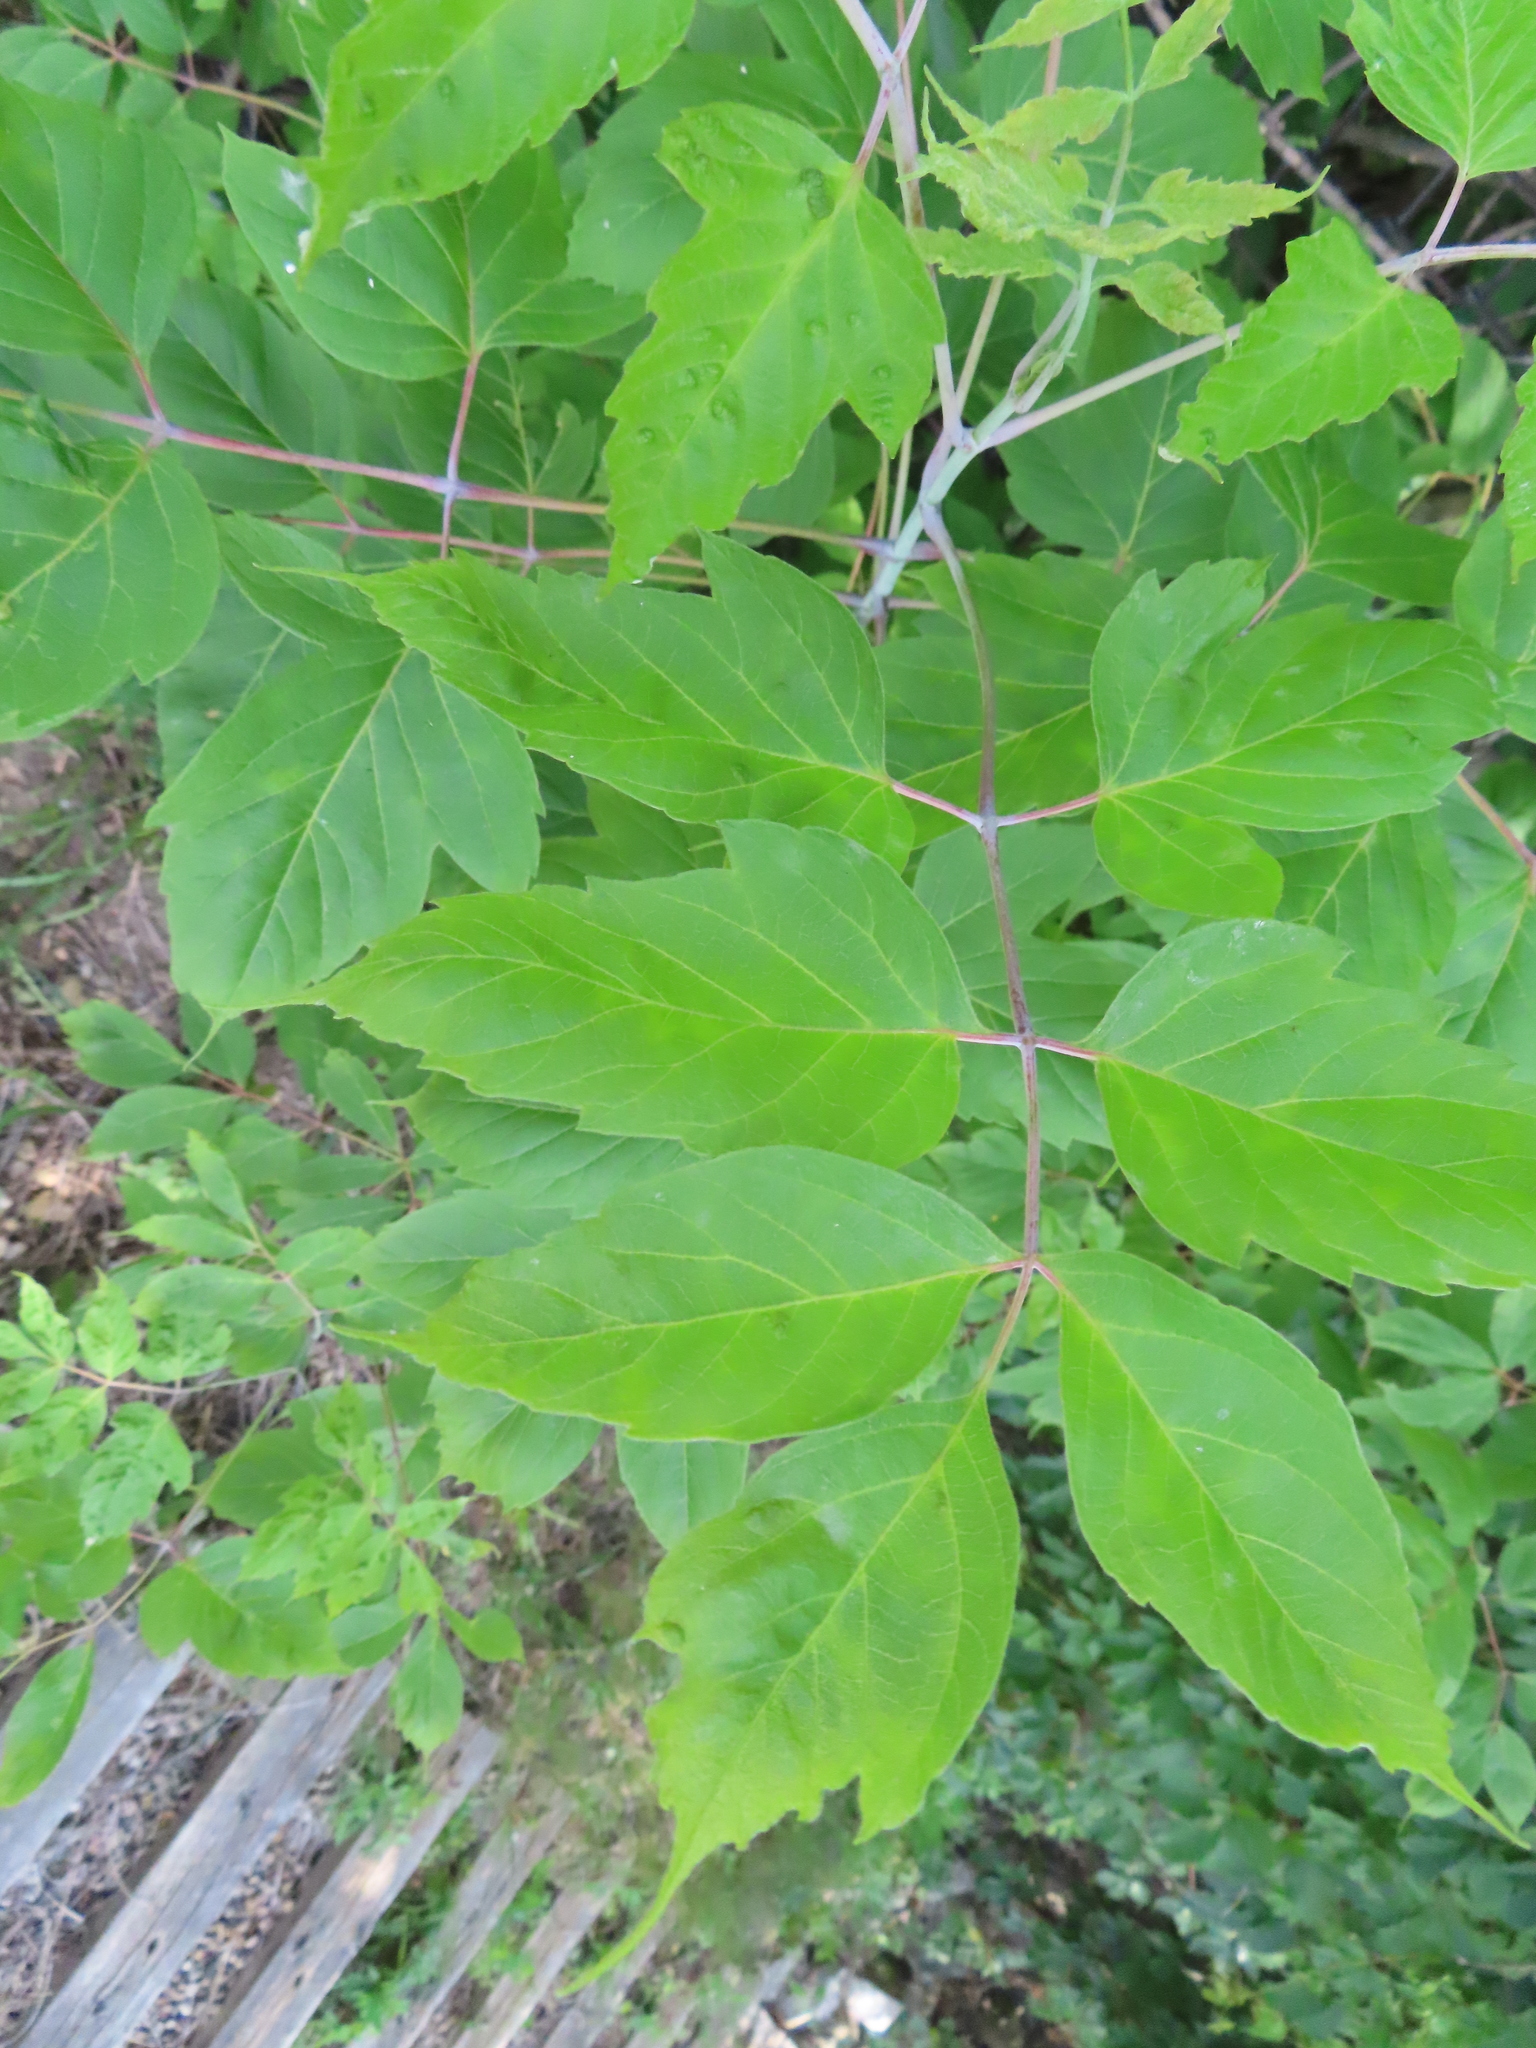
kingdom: Plantae
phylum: Tracheophyta
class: Magnoliopsida
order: Sapindales
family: Sapindaceae
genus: Acer
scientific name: Acer negundo
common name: Ashleaf maple
